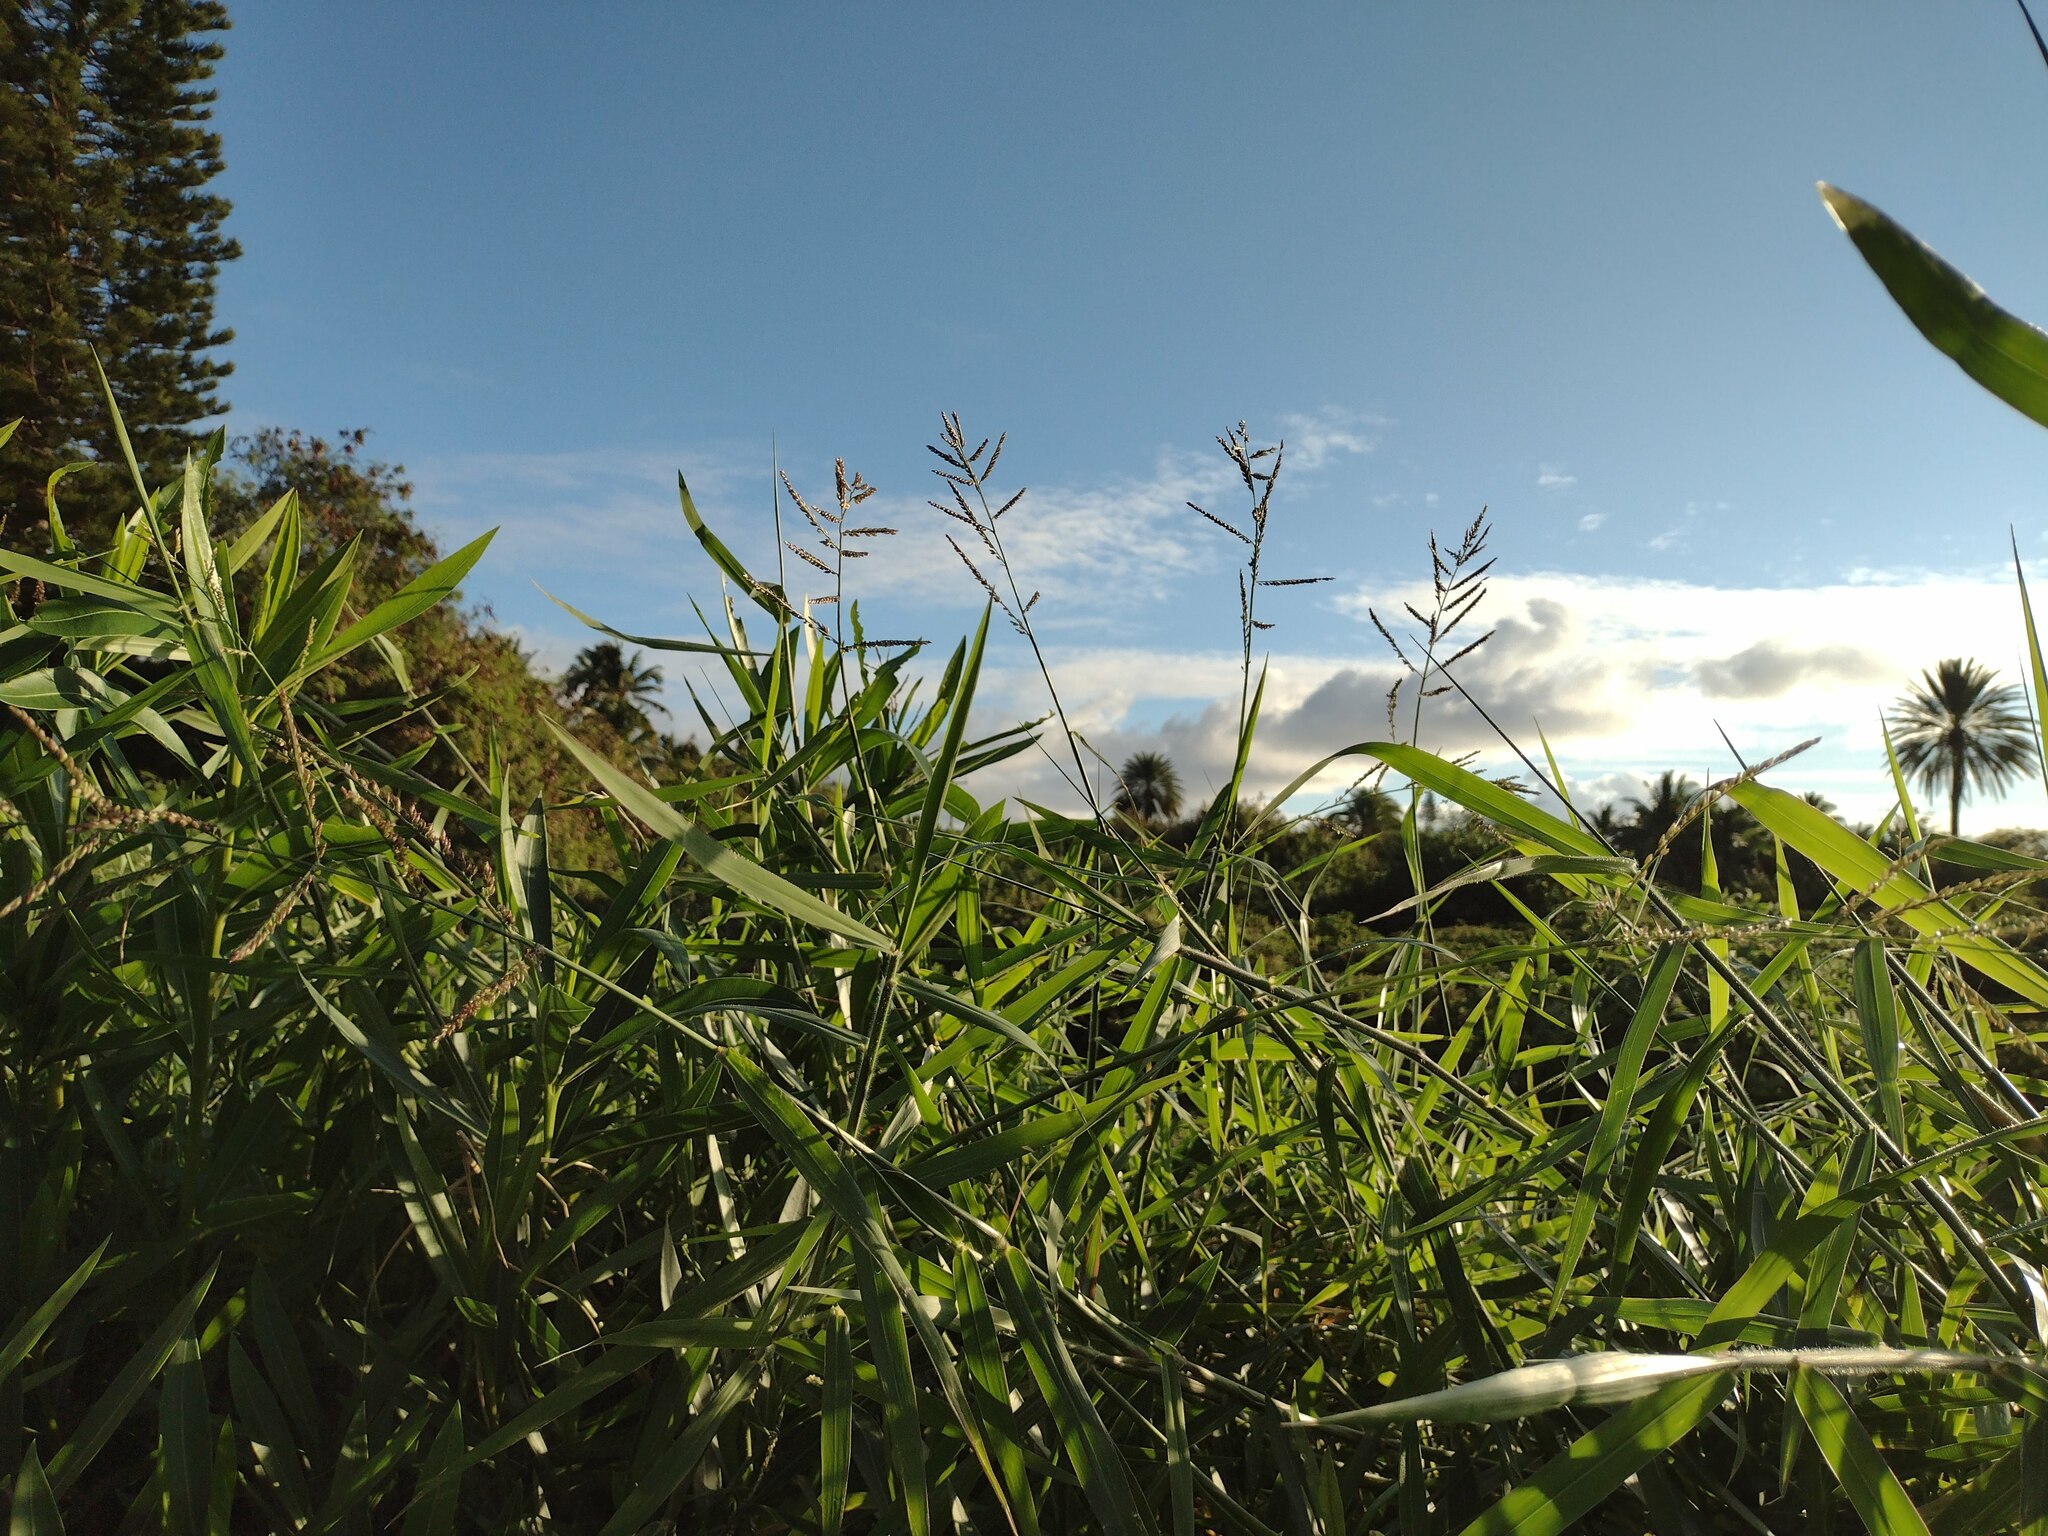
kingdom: Plantae
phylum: Tracheophyta
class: Liliopsida
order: Poales
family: Poaceae
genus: Urochloa
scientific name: Urochloa mutica
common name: Para grass
